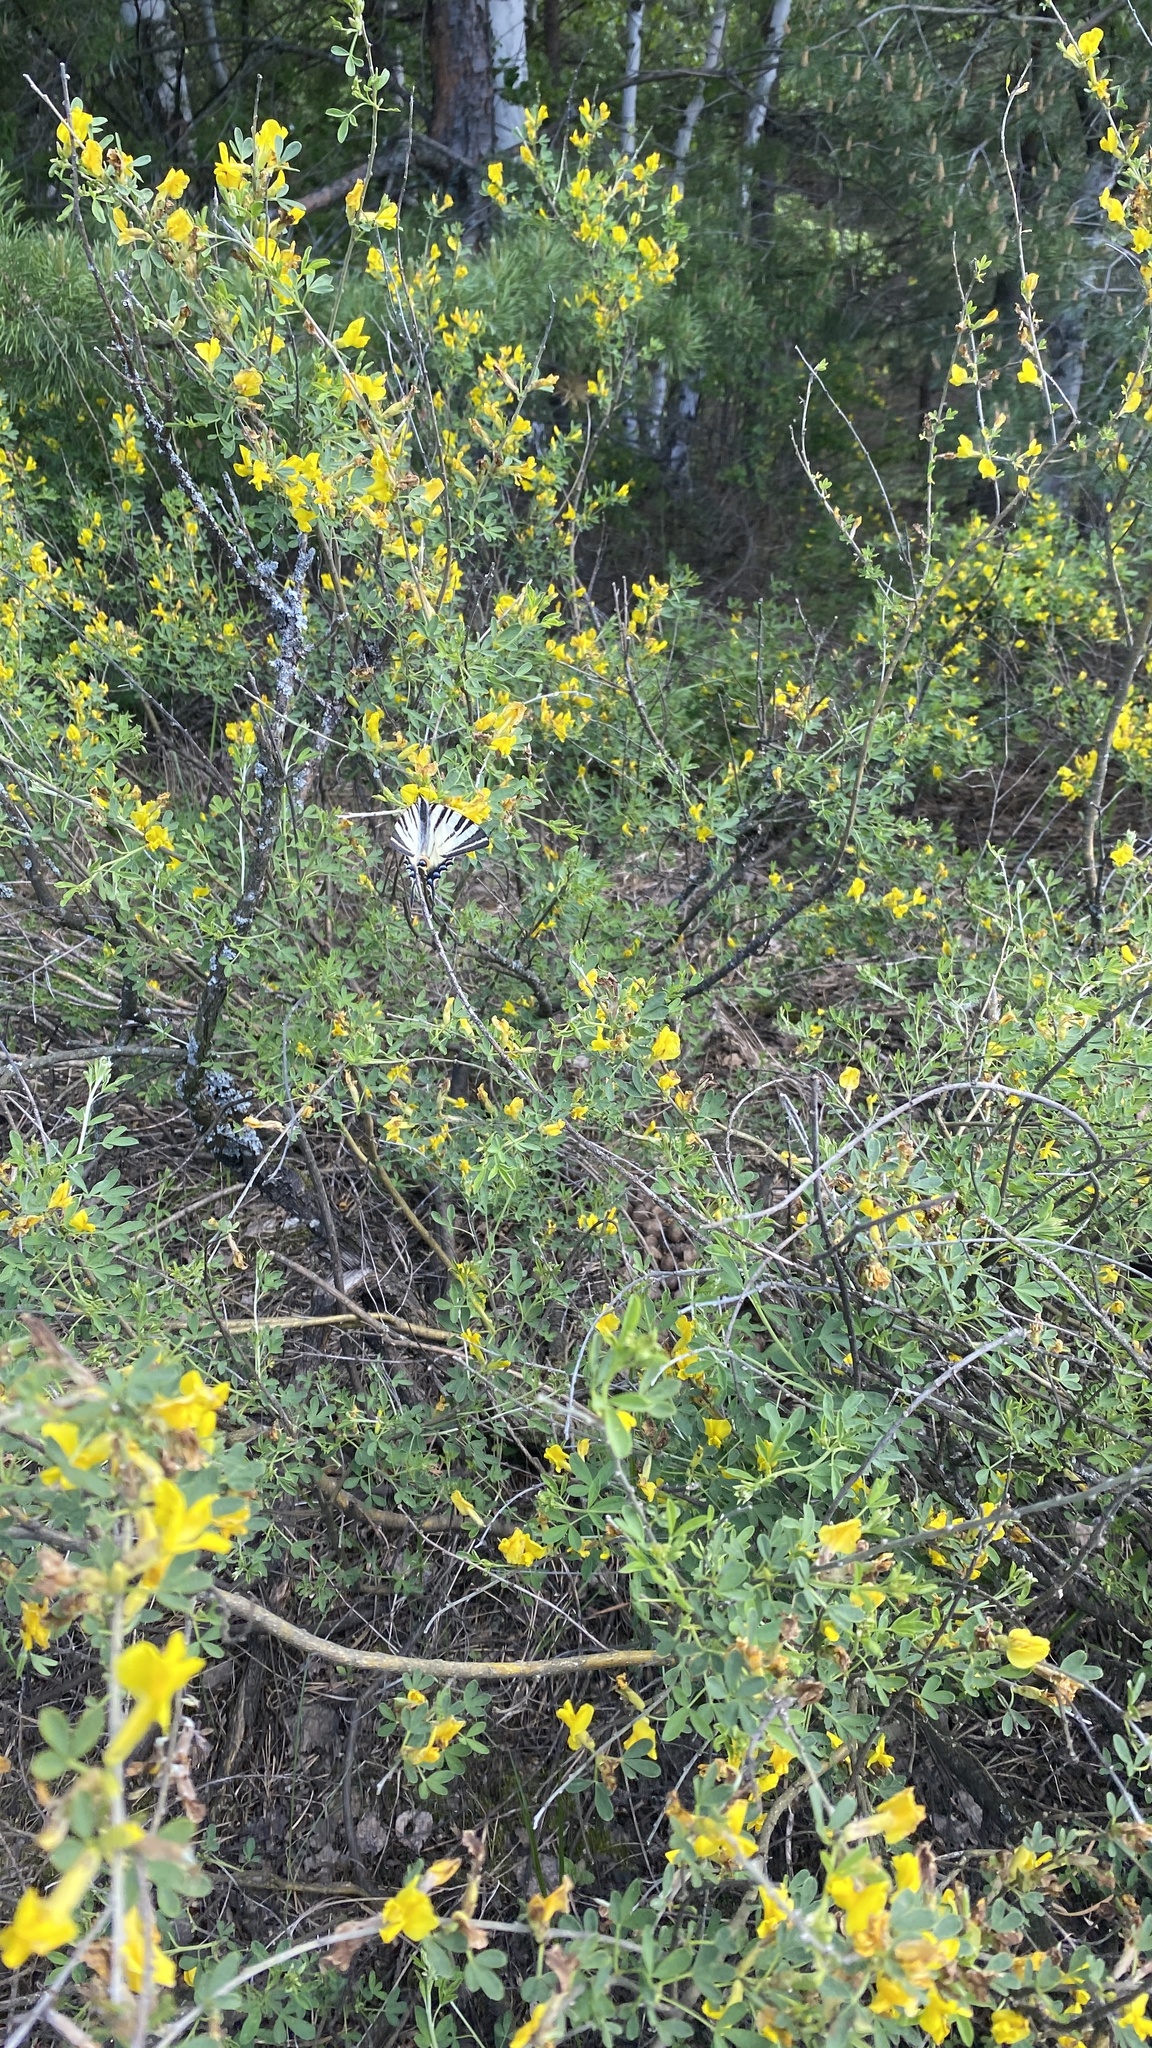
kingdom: Plantae
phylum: Tracheophyta
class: Magnoliopsida
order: Fabales
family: Fabaceae
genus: Chamaecytisus
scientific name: Chamaecytisus ruthenicus
